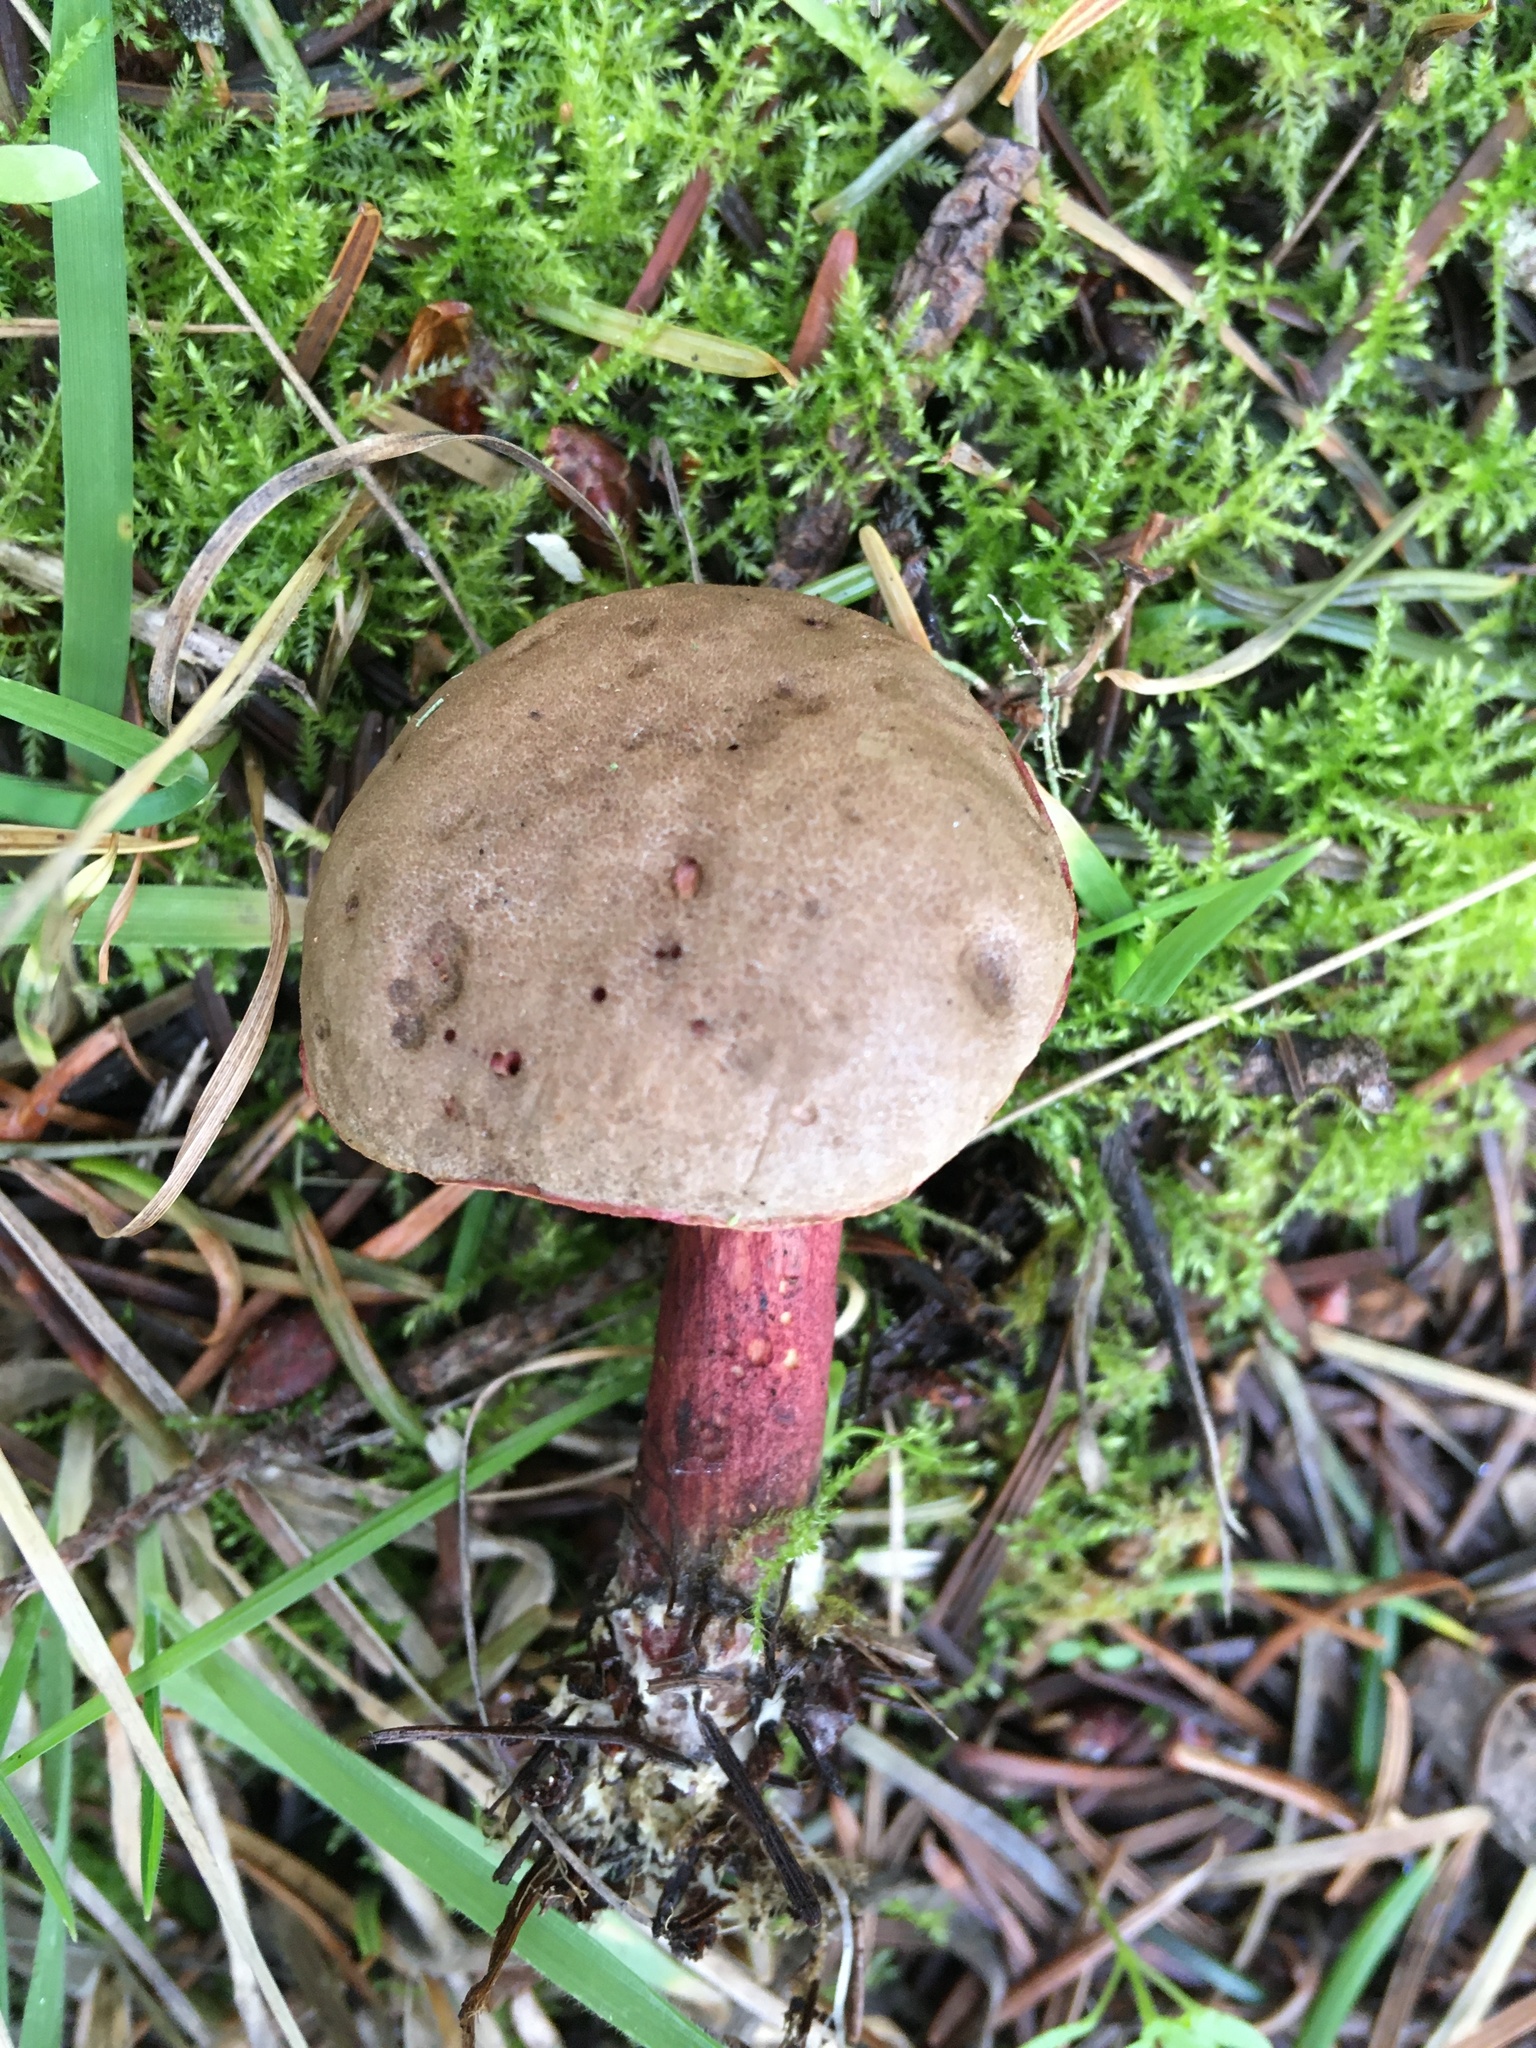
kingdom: Fungi
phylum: Basidiomycota
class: Agaricomycetes
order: Boletales
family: Boletaceae
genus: Xerocomellus
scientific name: Xerocomellus mendocinensis
